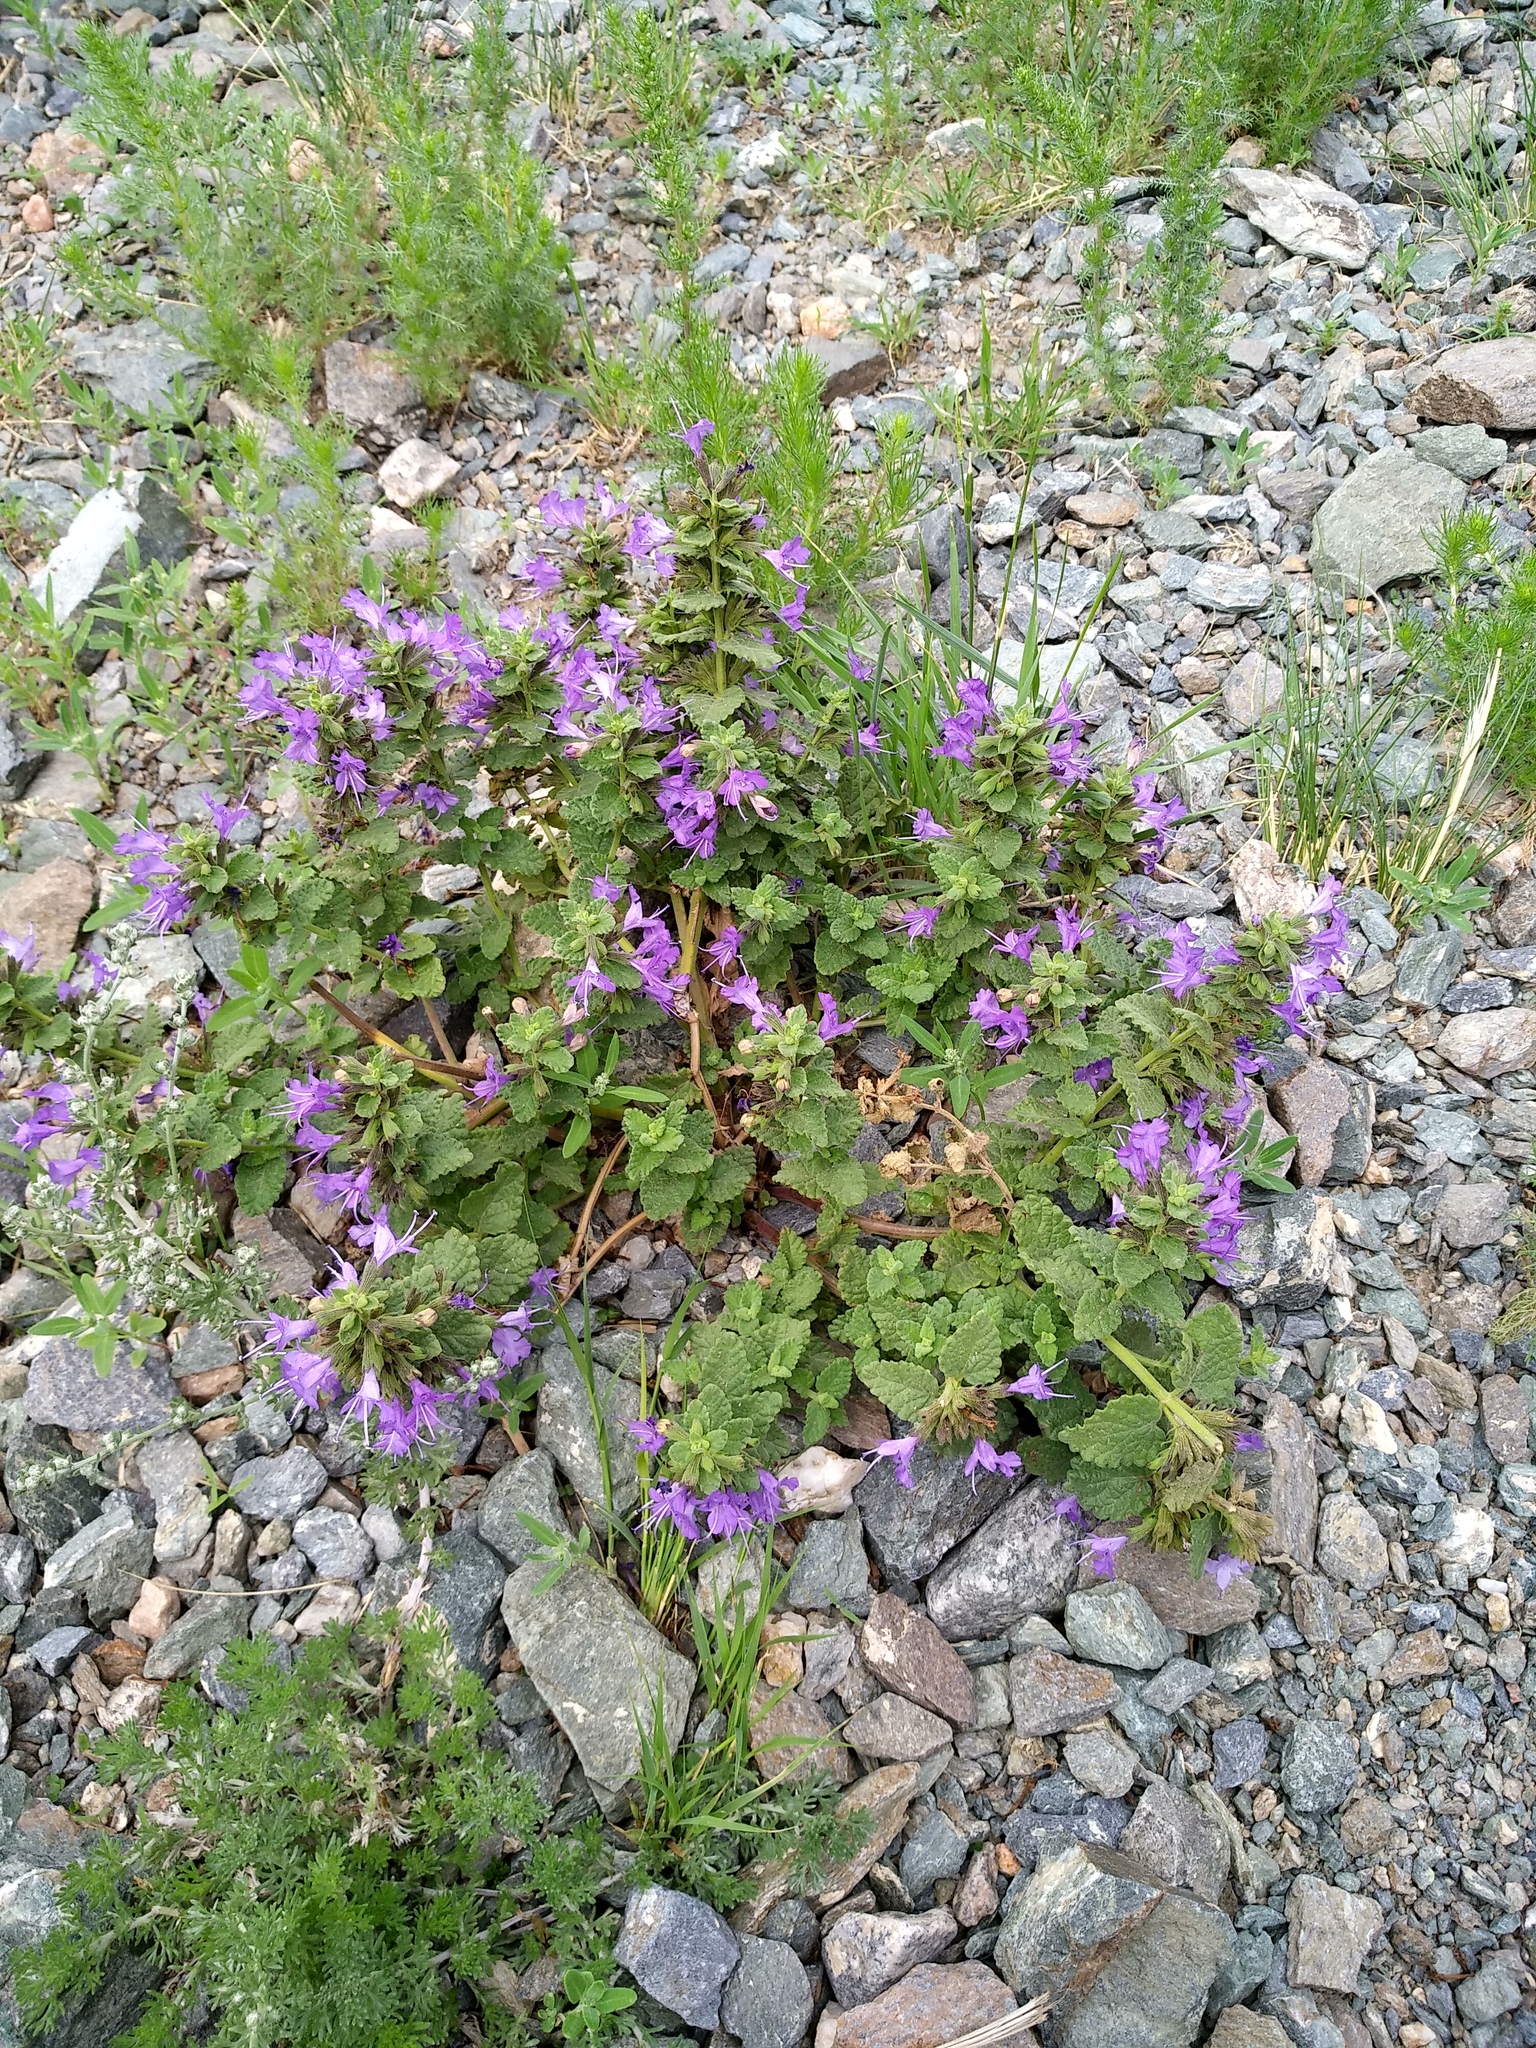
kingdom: Plantae
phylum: Tracheophyta
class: Magnoliopsida
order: Lamiales
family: Lamiaceae
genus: Nepeta
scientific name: Nepeta lophanthus
